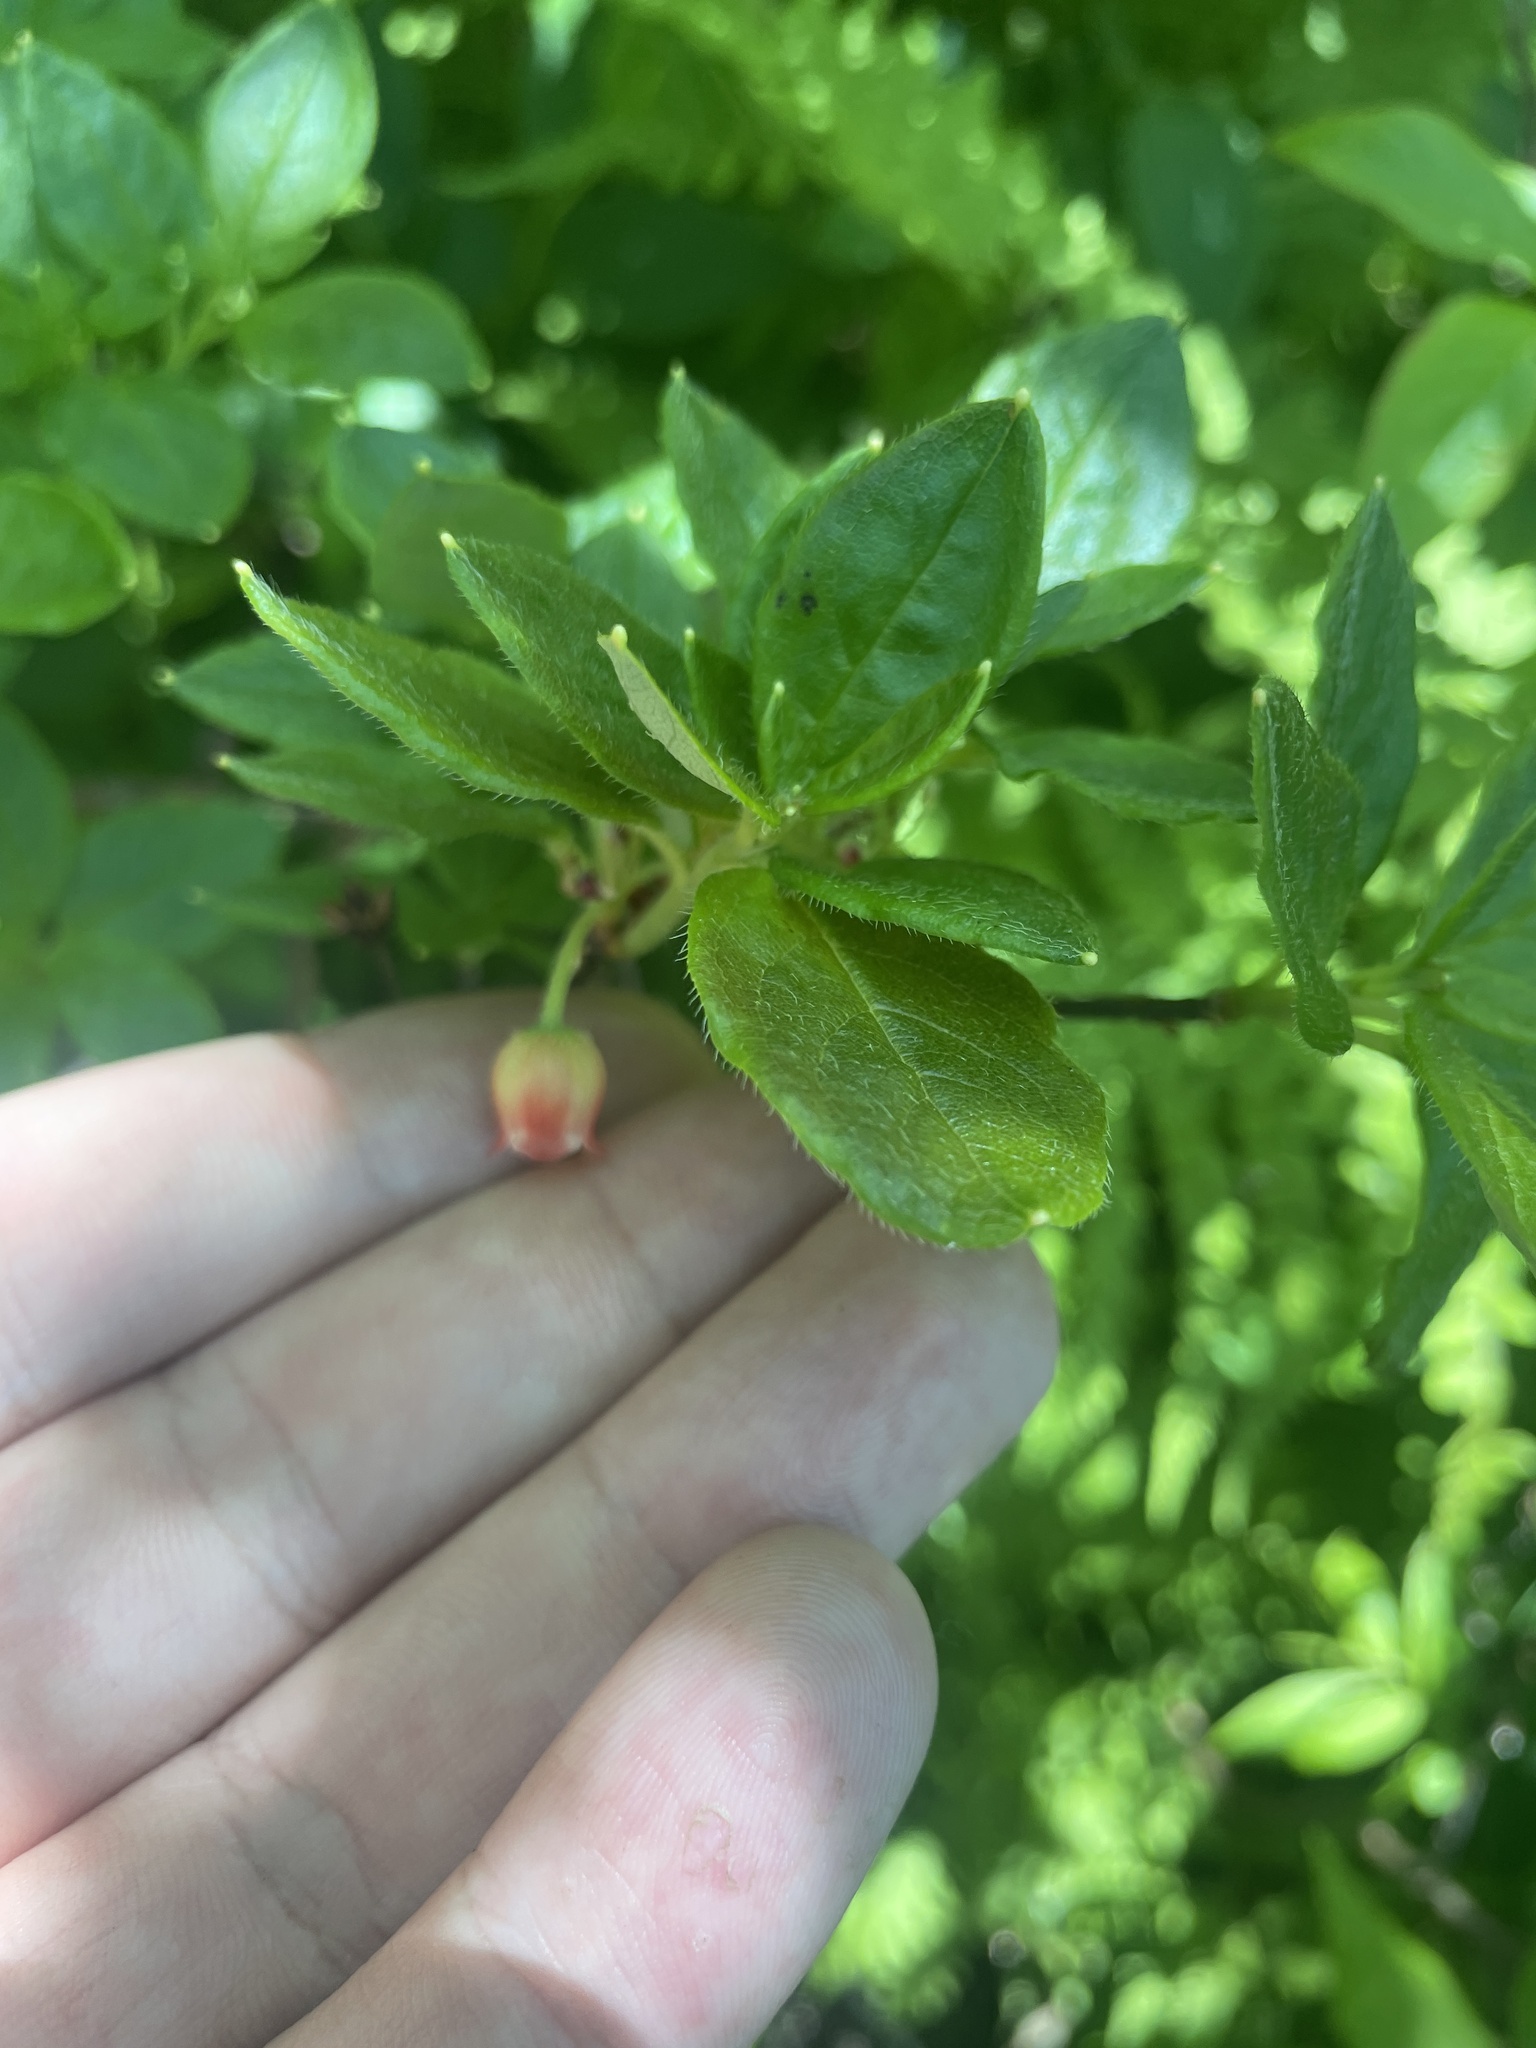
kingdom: Plantae
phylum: Tracheophyta
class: Magnoliopsida
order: Ericales
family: Ericaceae
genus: Rhododendron
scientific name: Rhododendron pilosum
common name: Hairy minniebush
